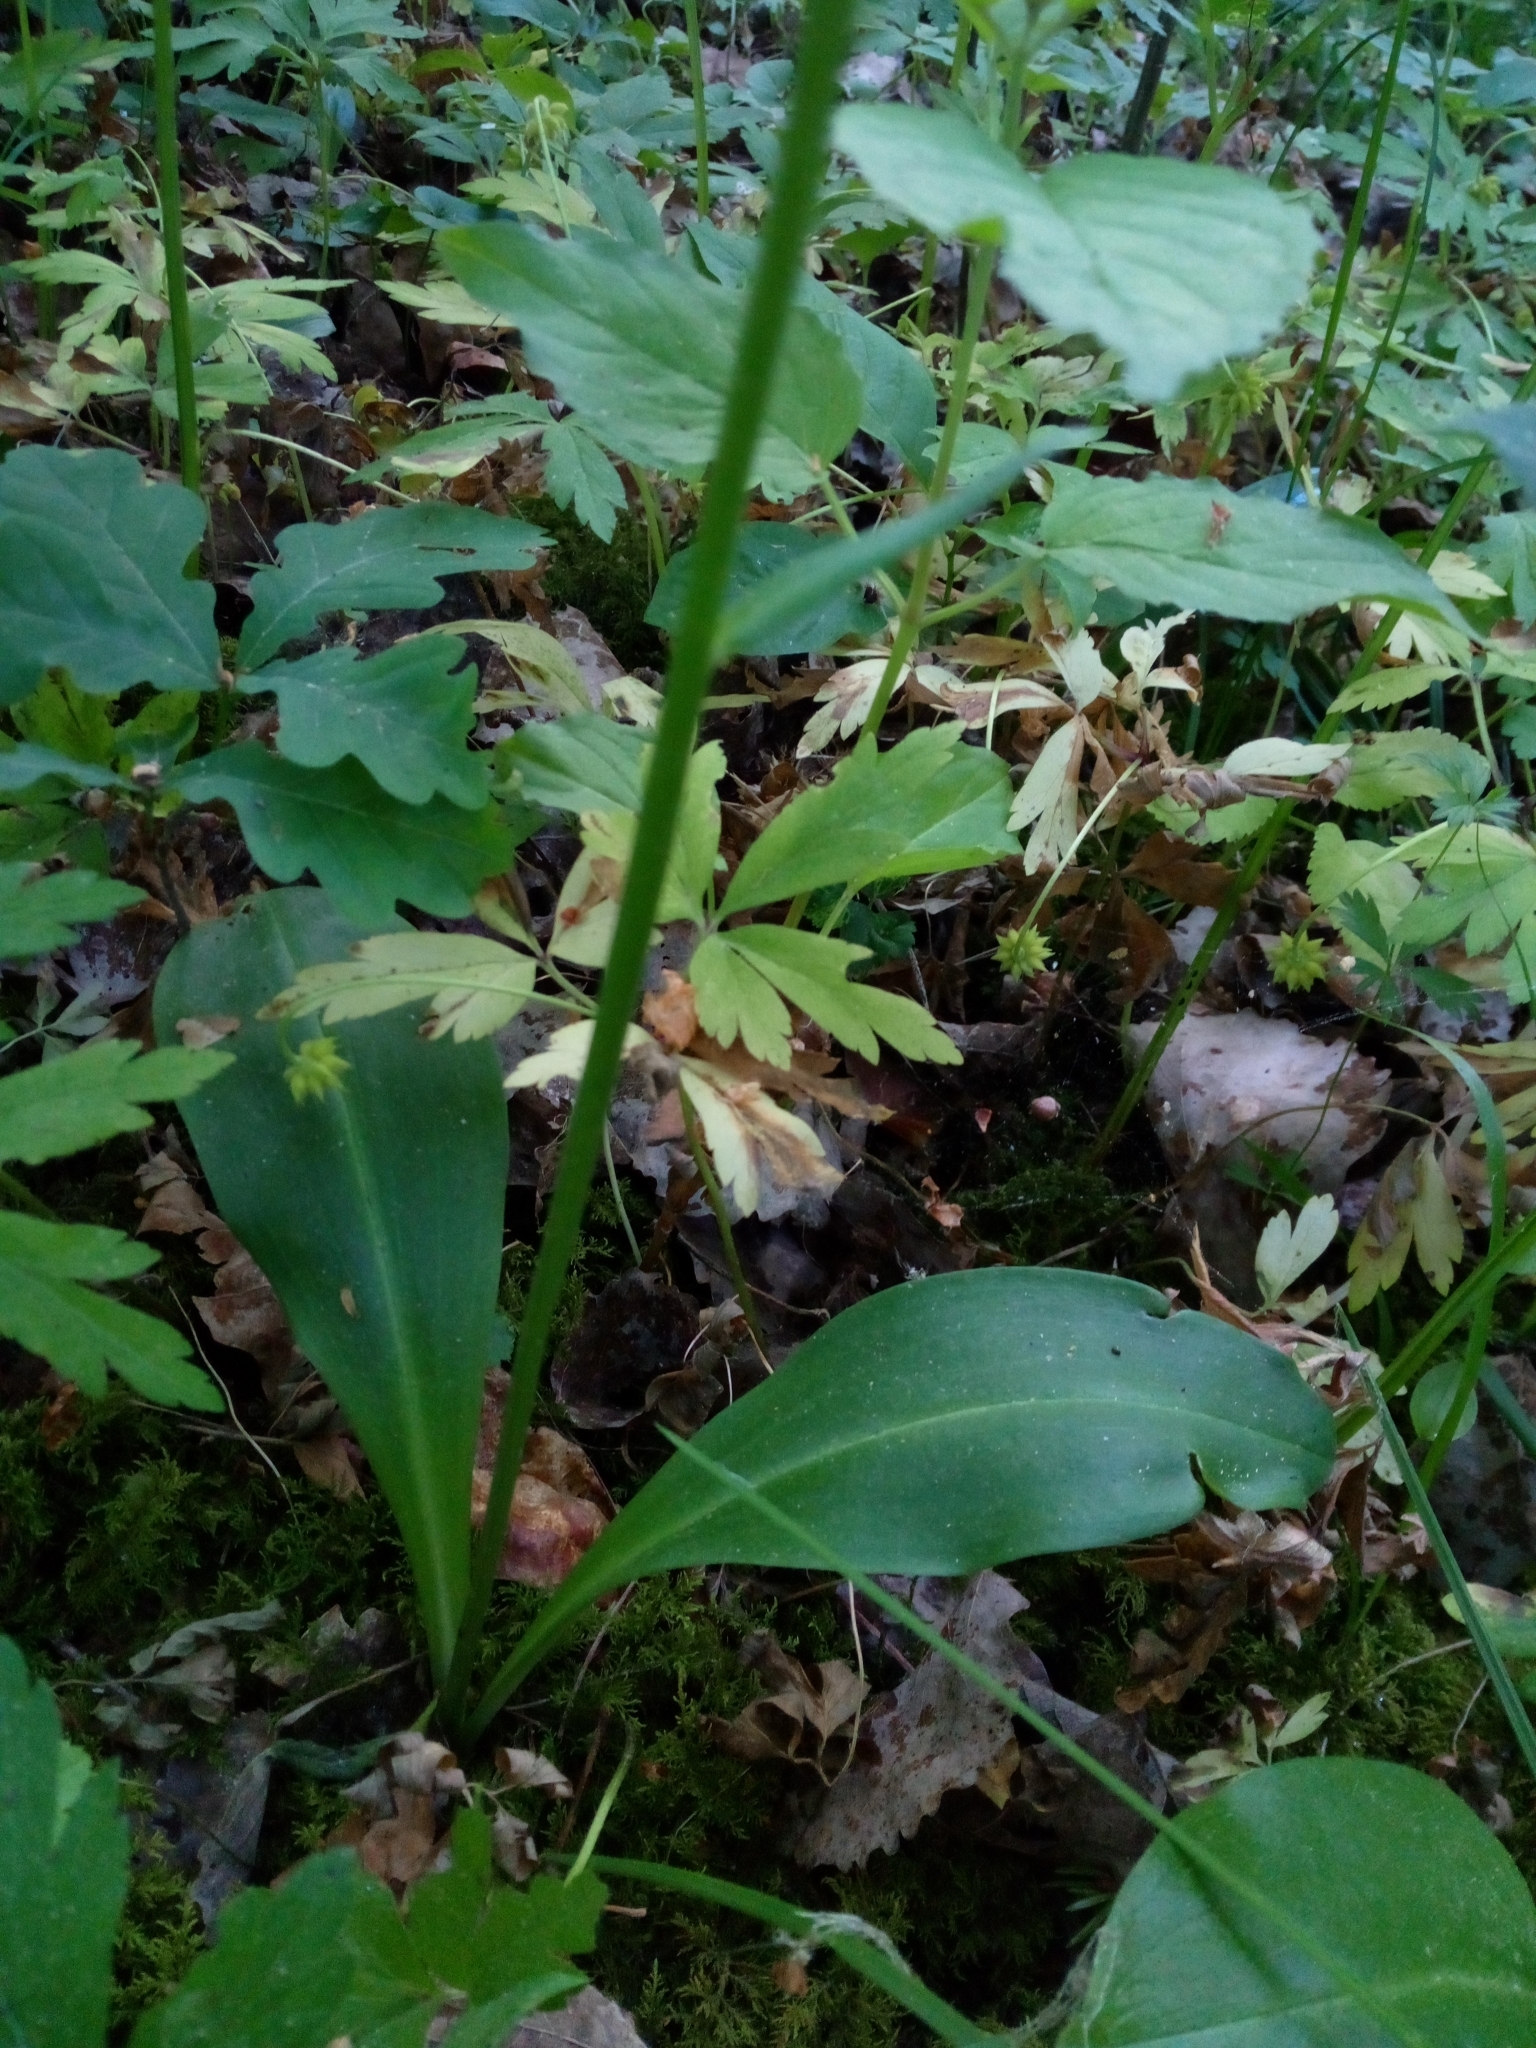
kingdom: Plantae
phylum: Tracheophyta
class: Liliopsida
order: Asparagales
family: Orchidaceae
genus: Platanthera
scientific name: Platanthera chlorantha
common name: Greater butterfly-orchid
